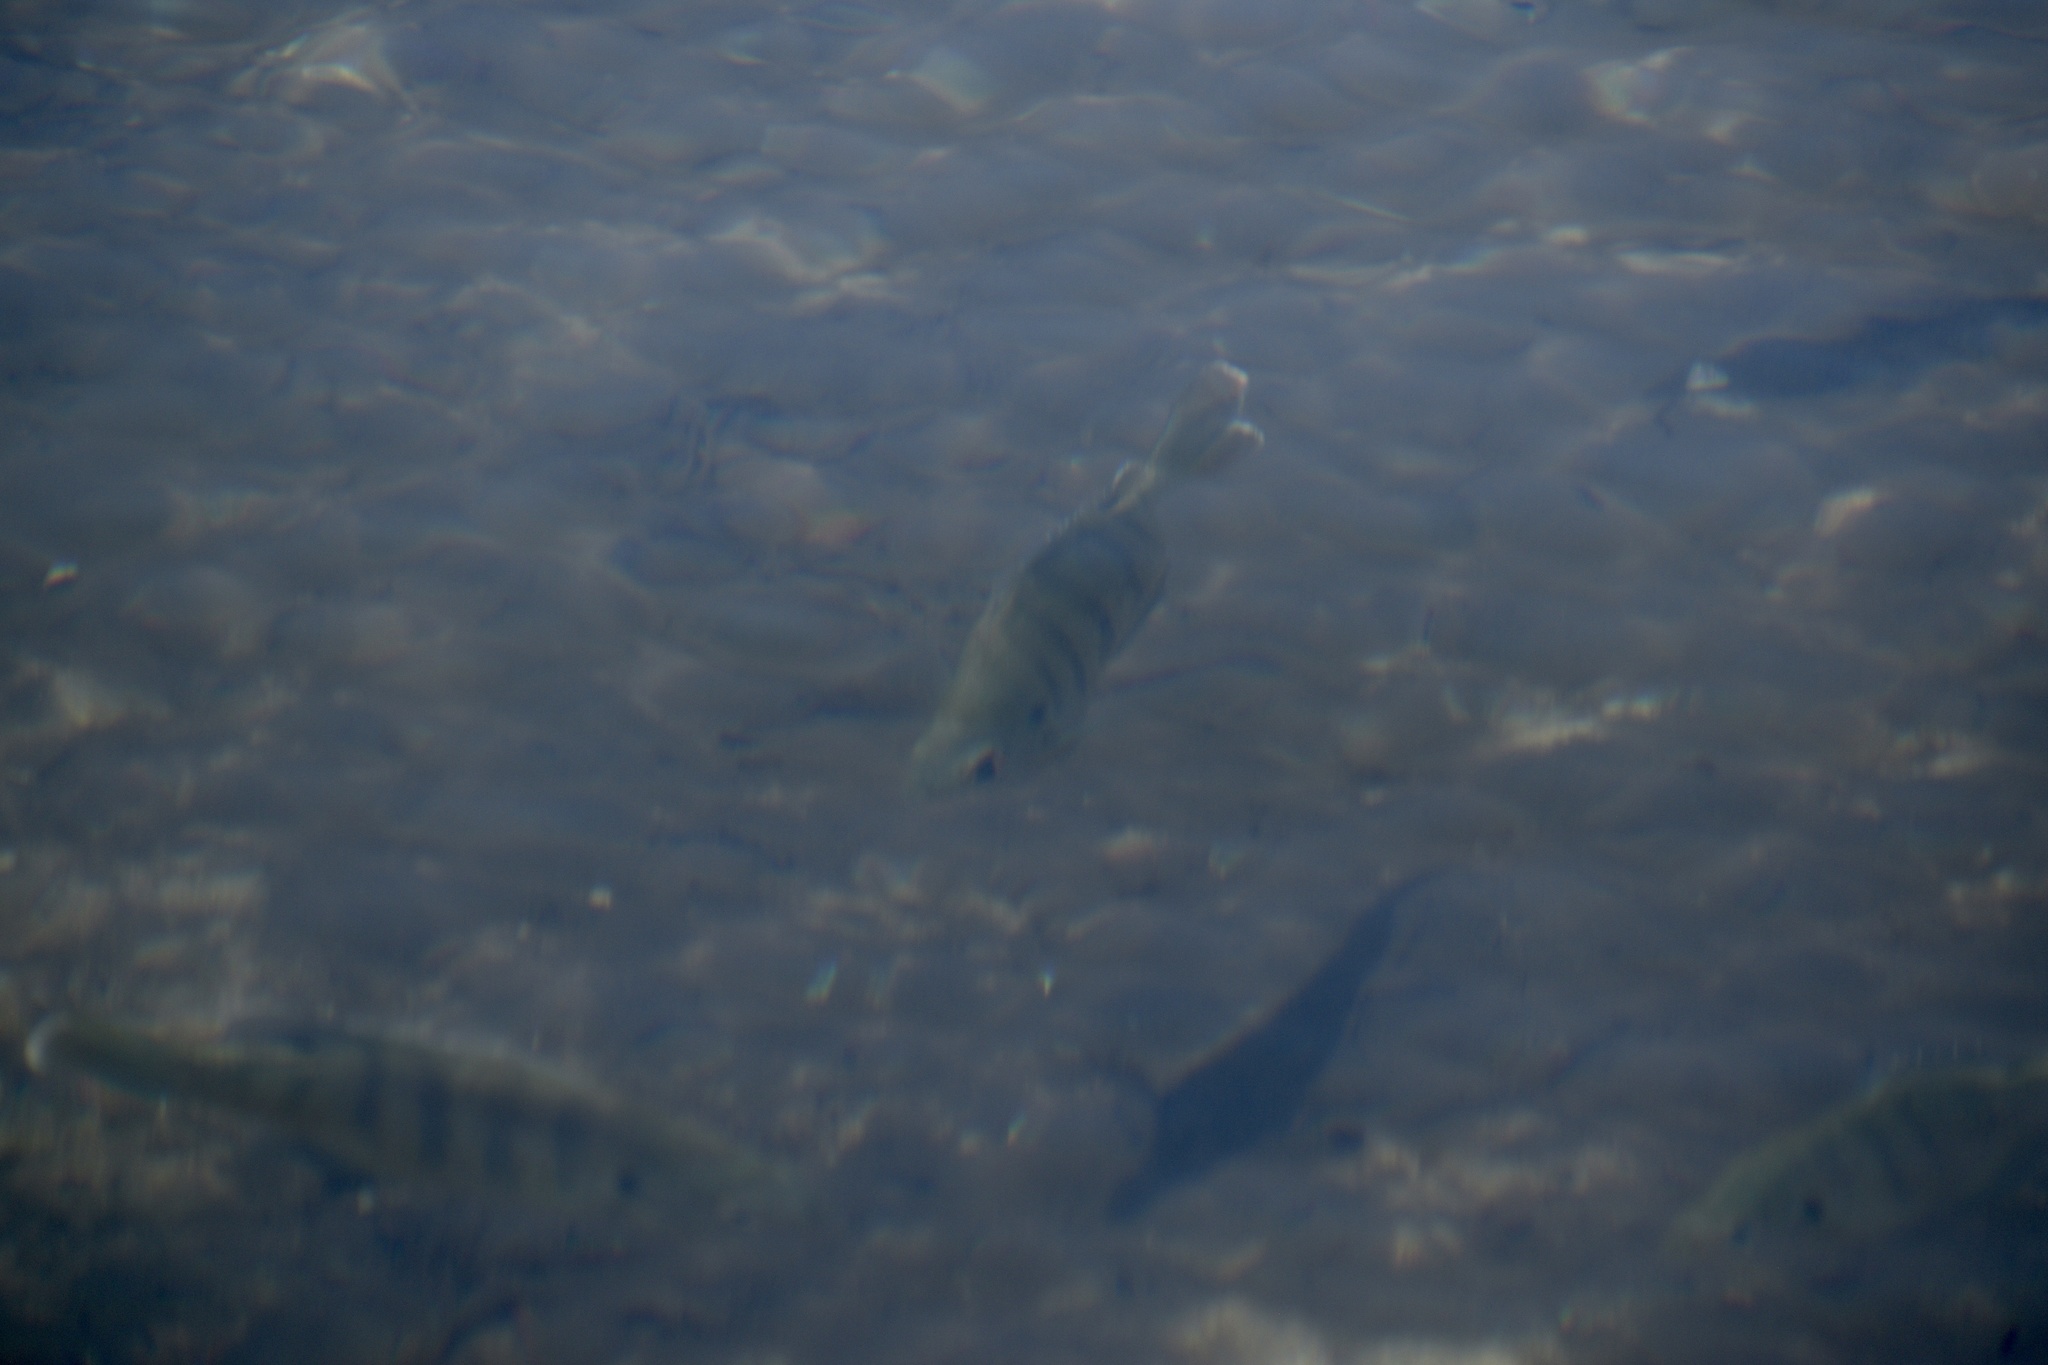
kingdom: Animalia
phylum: Chordata
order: Perciformes
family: Centrarchidae
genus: Lepomis
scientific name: Lepomis macrochirus
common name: Bluegill
